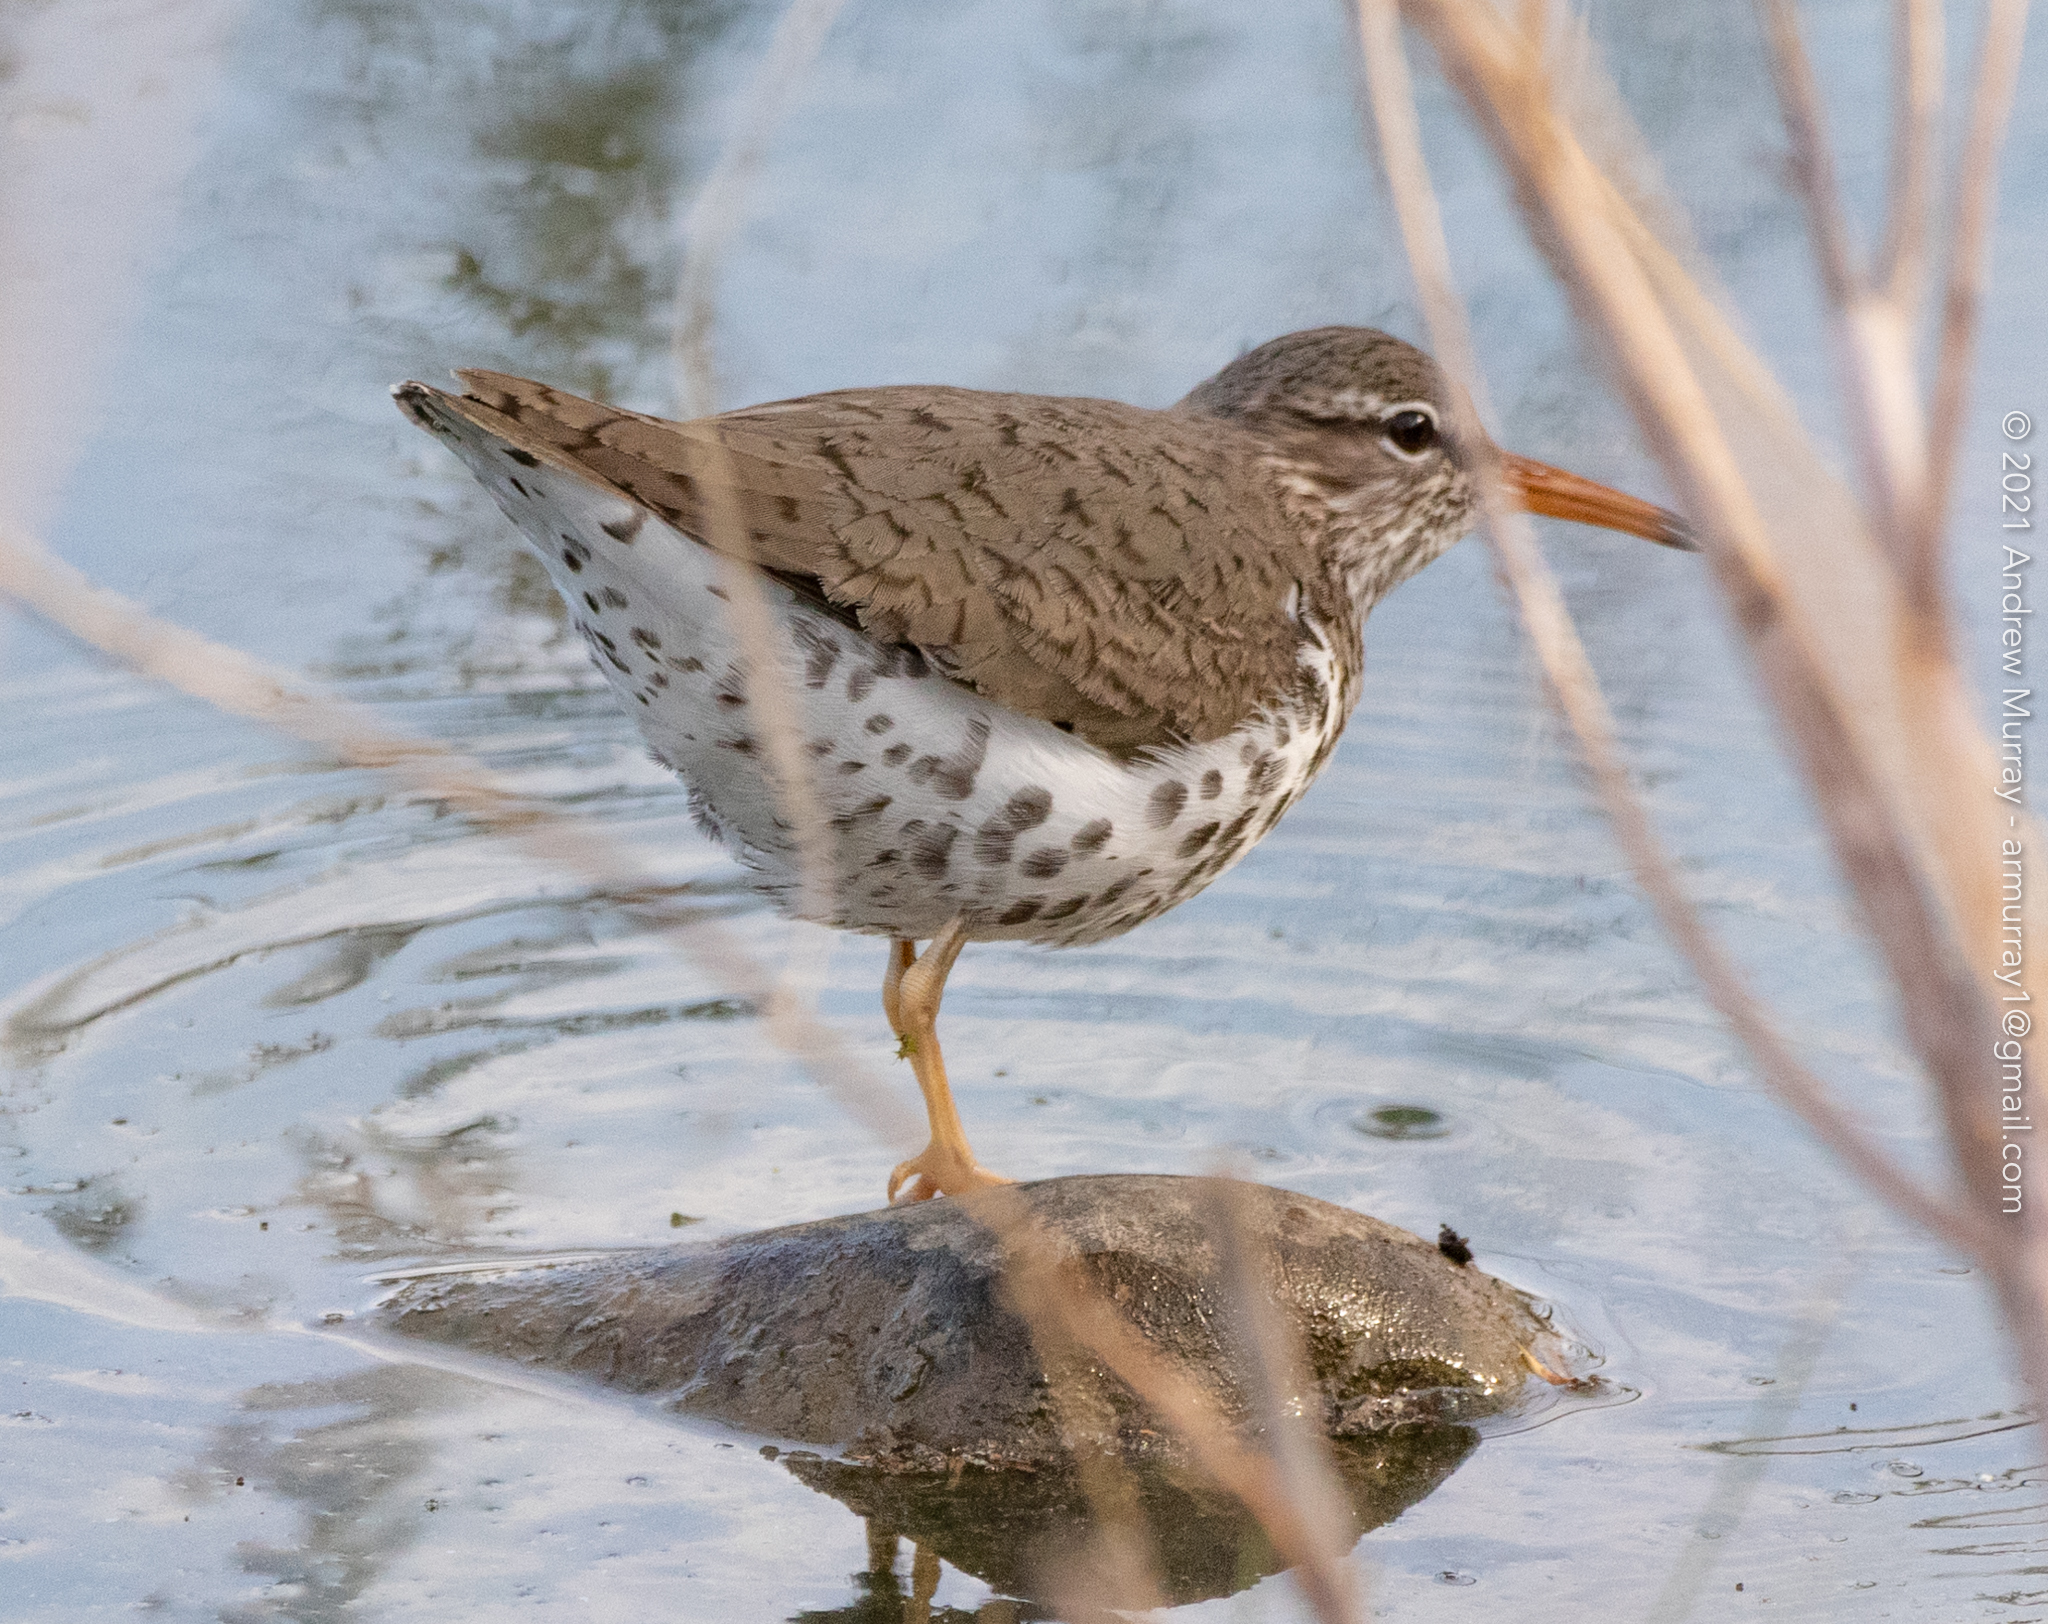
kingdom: Animalia
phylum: Chordata
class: Aves
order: Charadriiformes
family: Scolopacidae
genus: Actitis
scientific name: Actitis macularius
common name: Spotted sandpiper
